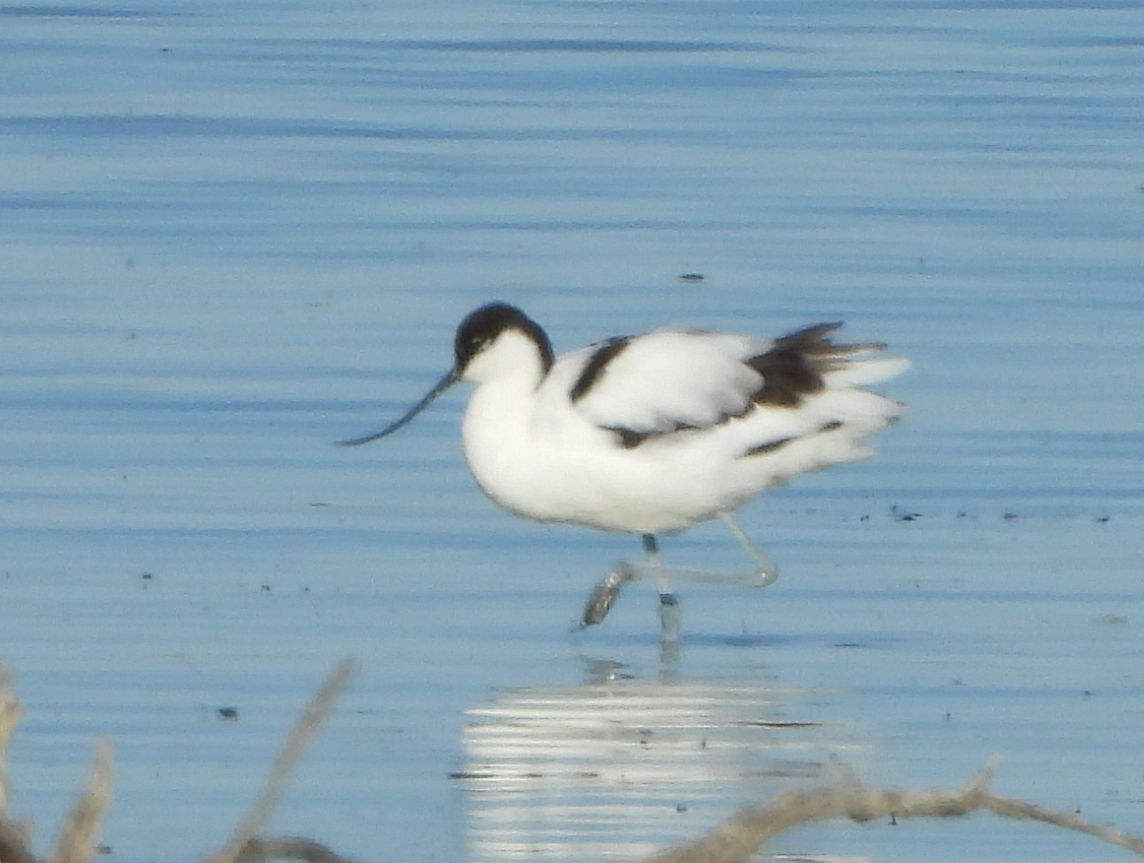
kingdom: Animalia
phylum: Chordata
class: Aves
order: Charadriiformes
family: Recurvirostridae
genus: Recurvirostra
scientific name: Recurvirostra avosetta
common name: Pied avocet
